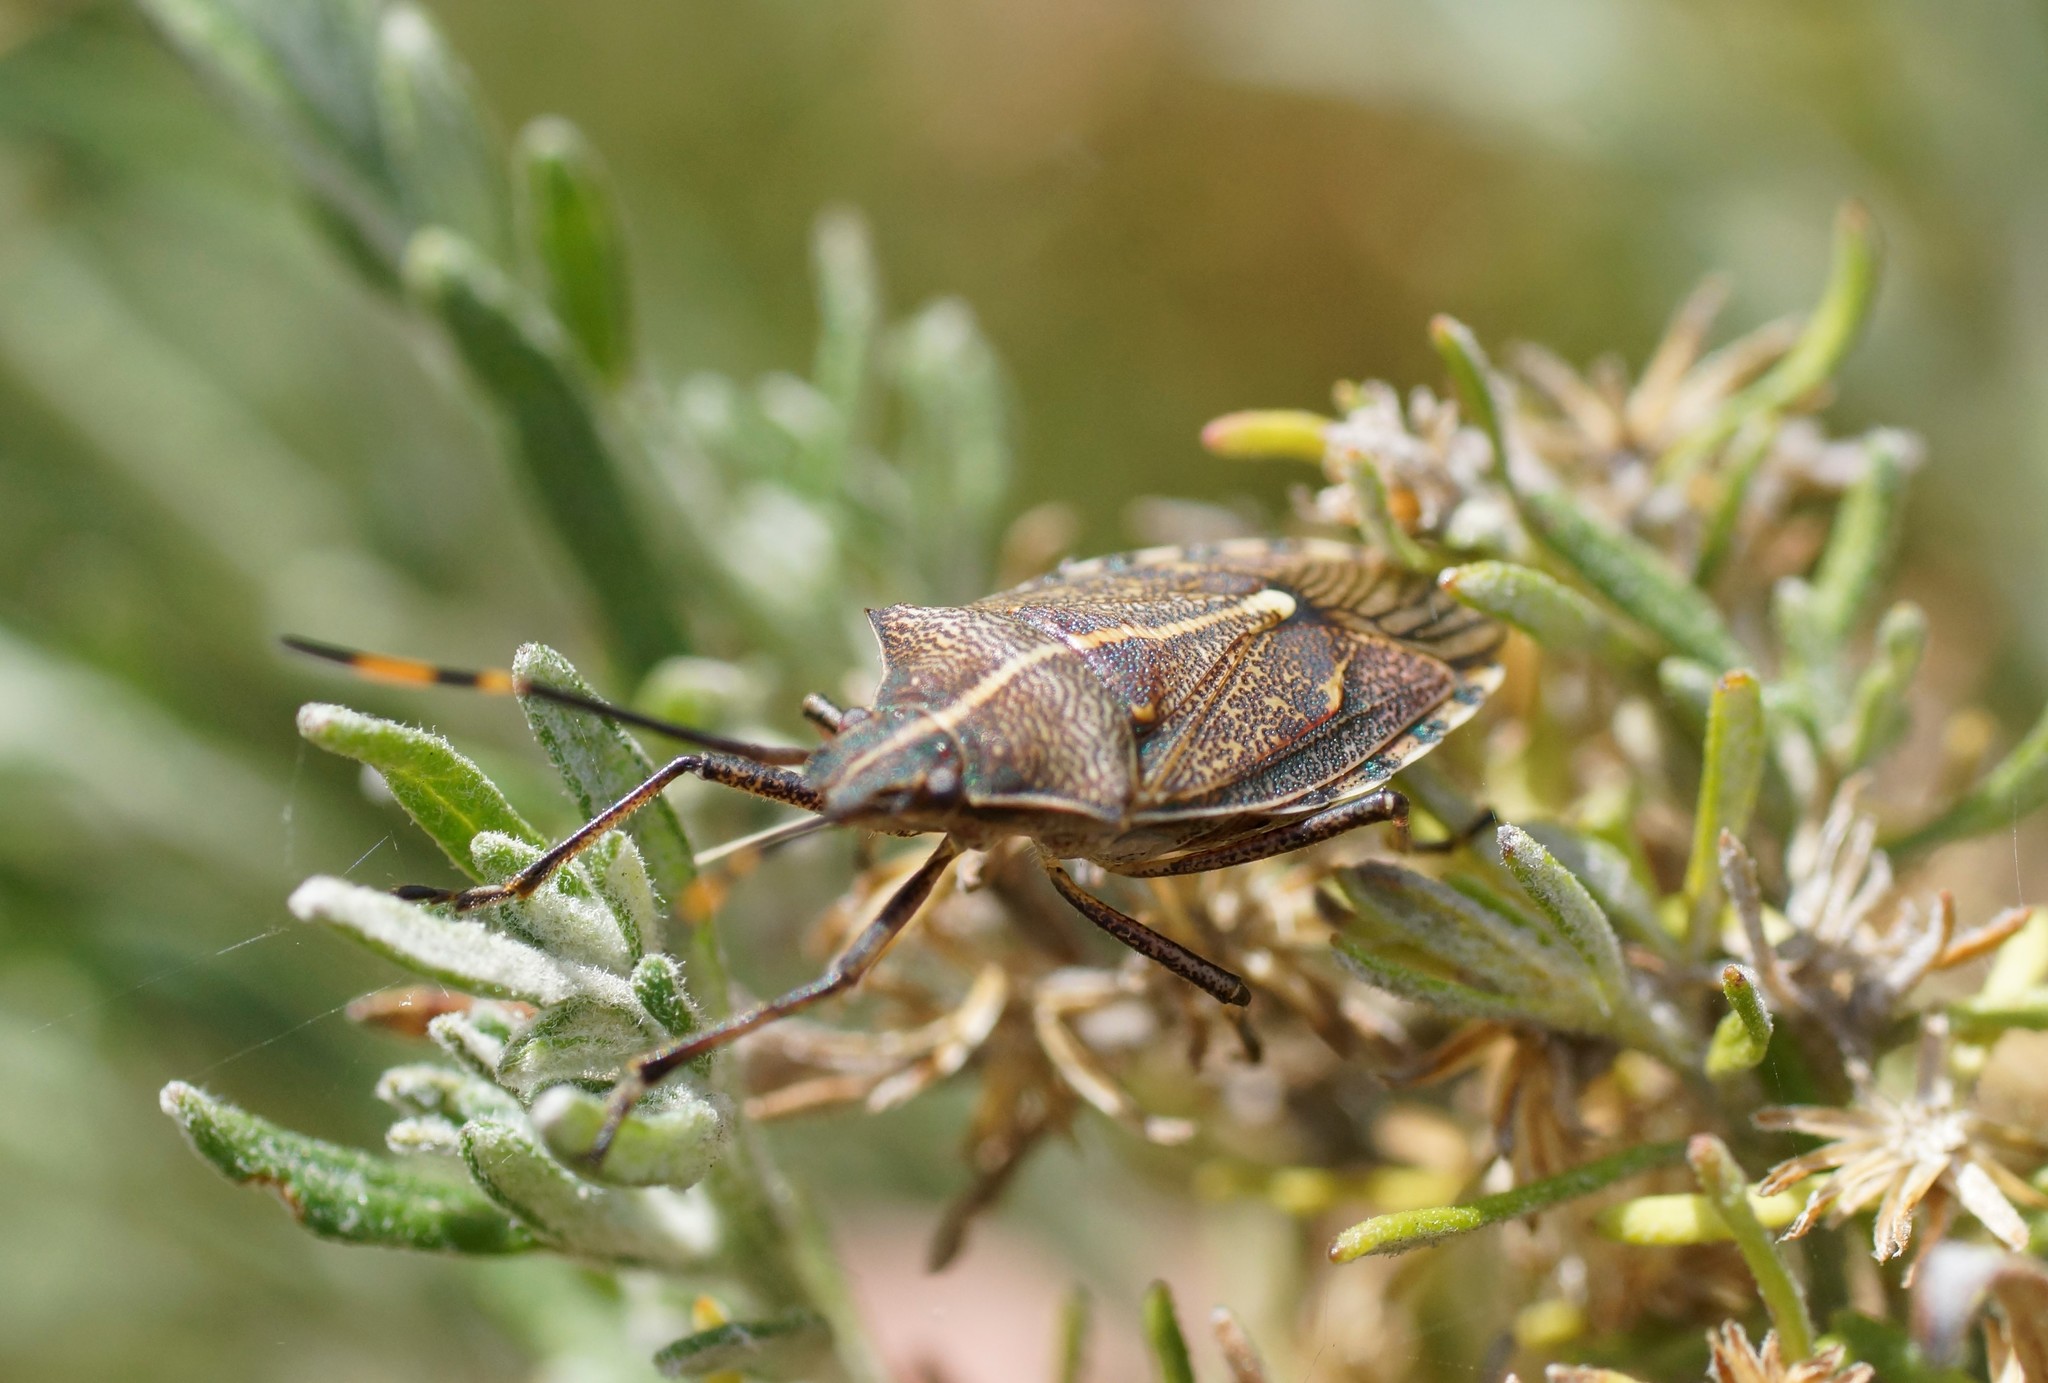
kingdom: Animalia
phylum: Arthropoda
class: Insecta
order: Hemiptera
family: Pentatomidae
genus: Omyta
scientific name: Omyta centrolineata
